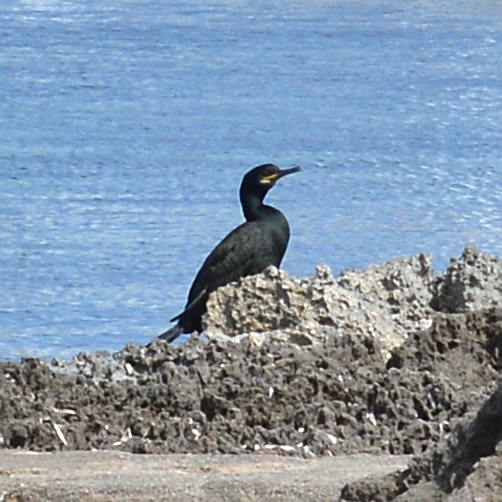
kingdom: Animalia
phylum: Chordata
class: Aves
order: Suliformes
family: Phalacrocoracidae
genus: Phalacrocorax
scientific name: Phalacrocorax aristotelis
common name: European shag
